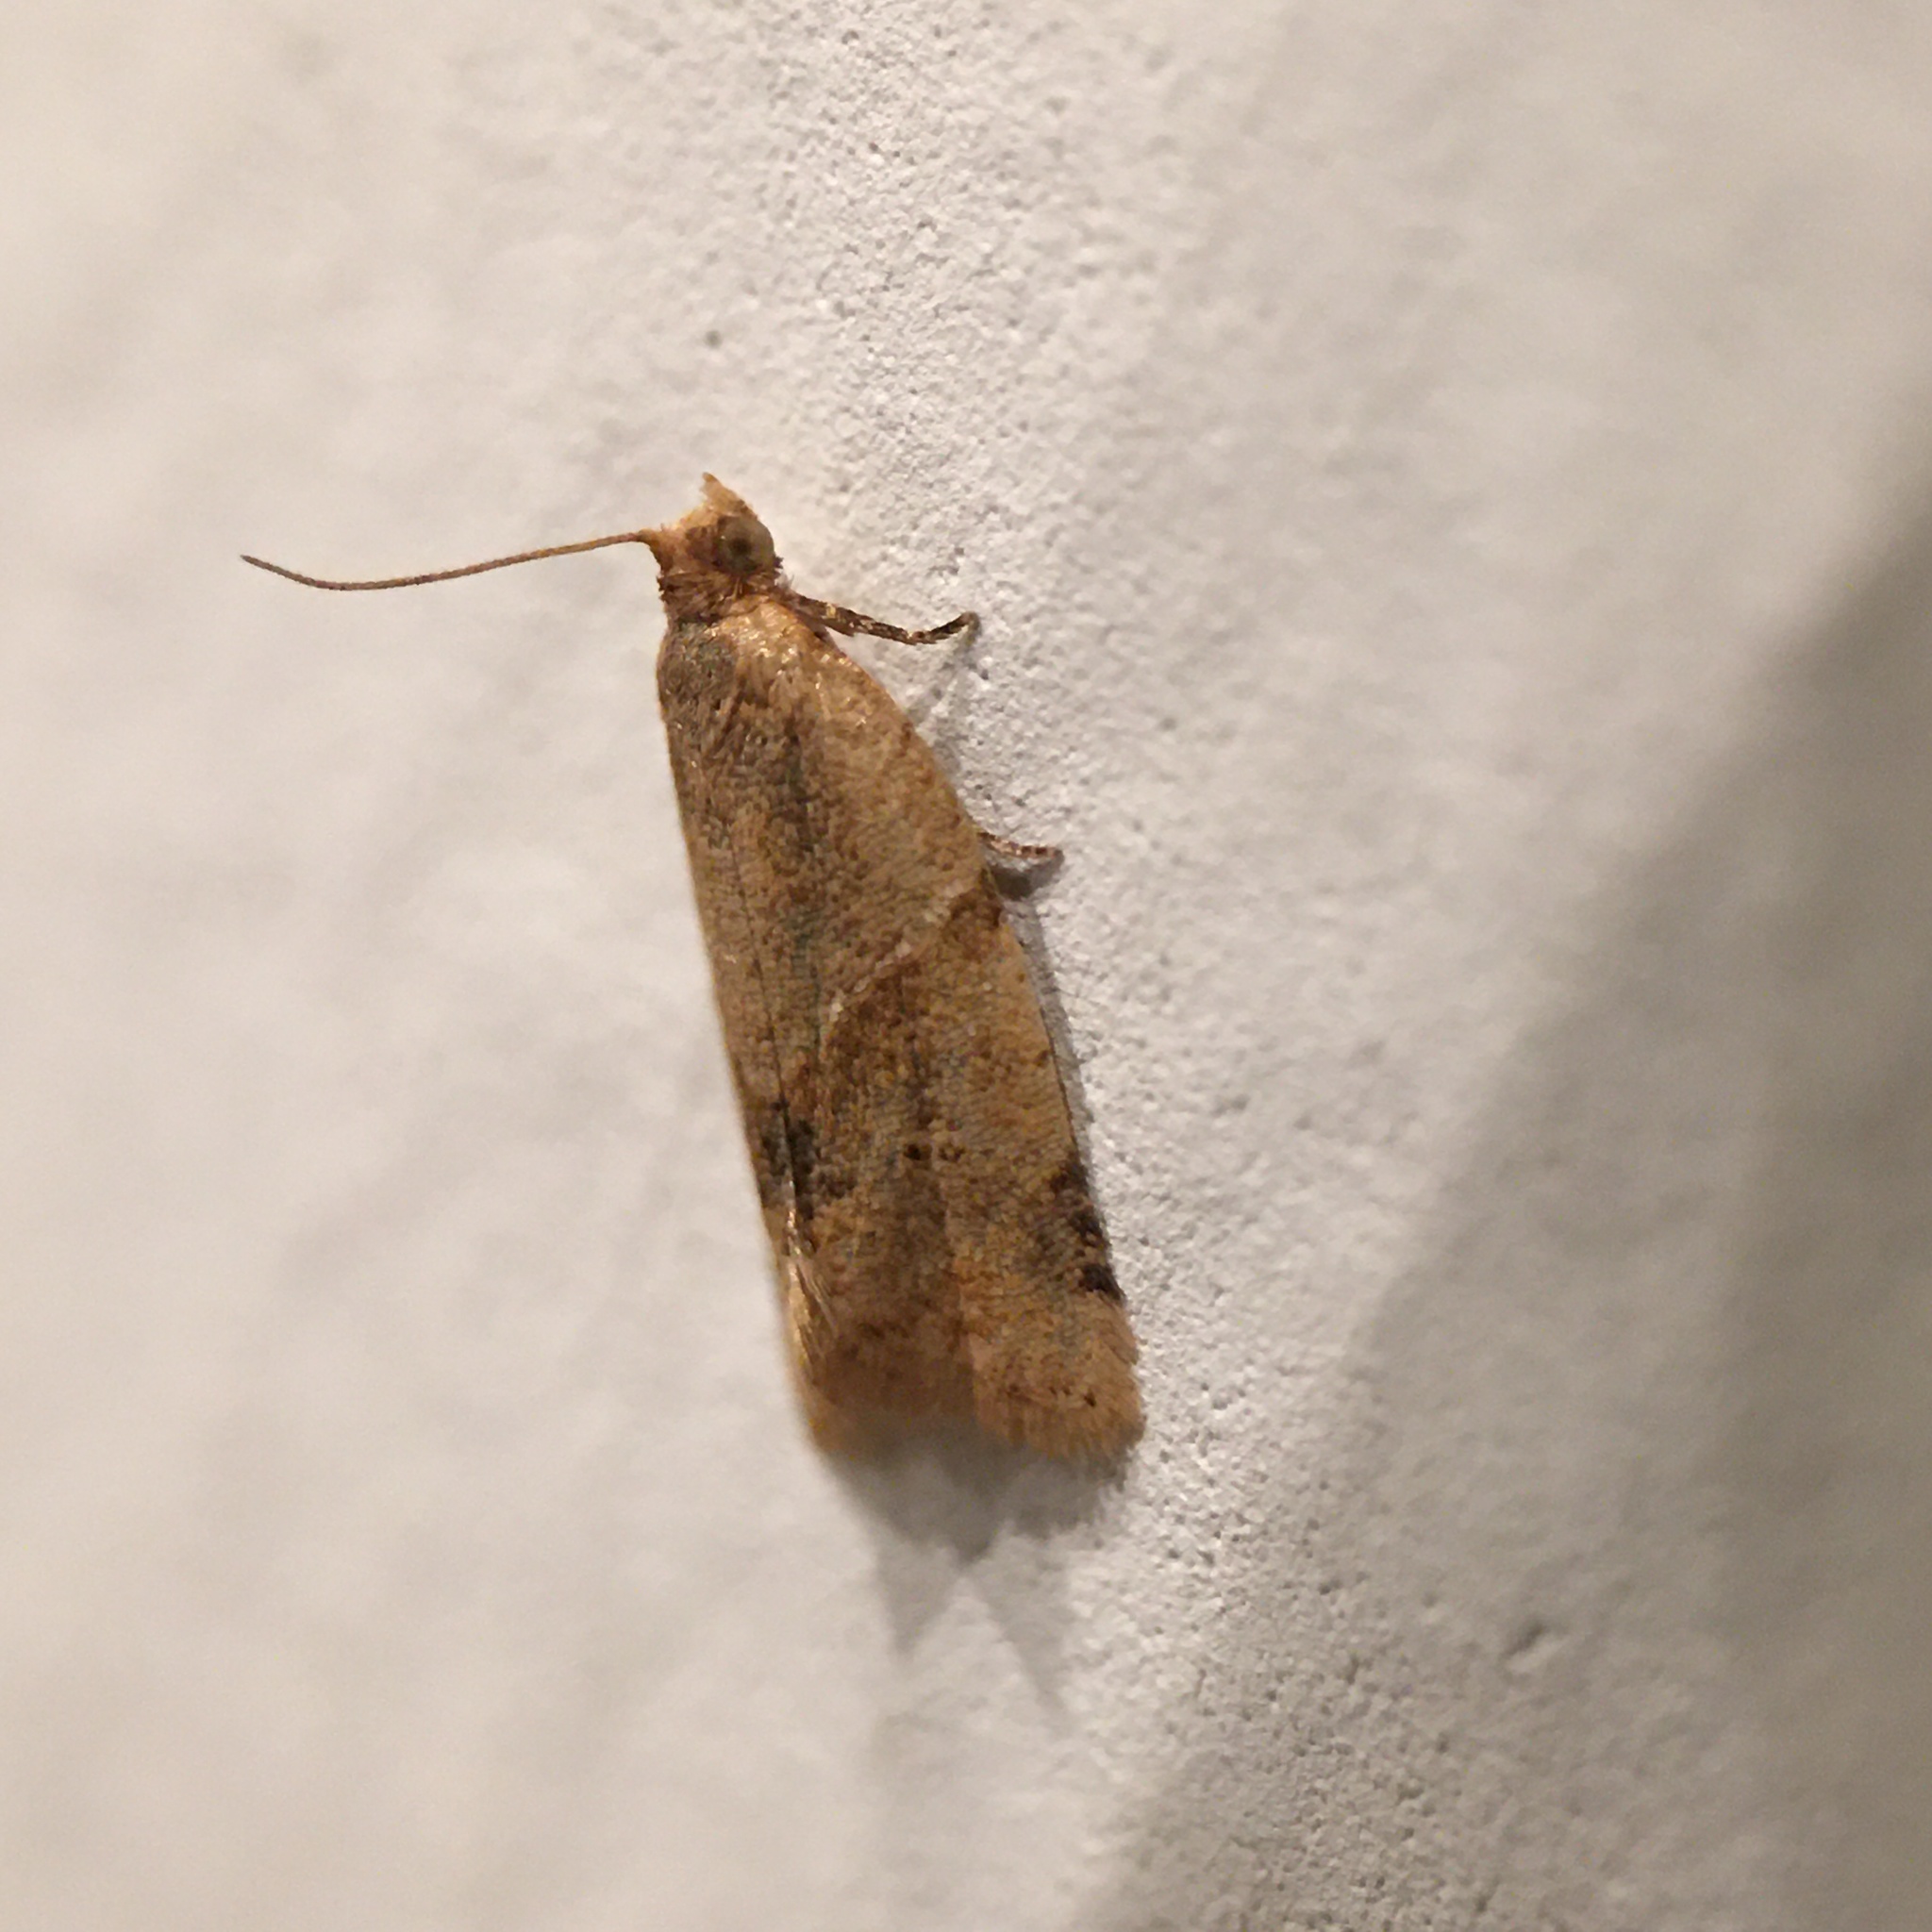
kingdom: Animalia
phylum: Arthropoda
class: Insecta
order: Lepidoptera
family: Tortricidae
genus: Clepsis
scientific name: Clepsis peritana
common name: Garden tortrix
